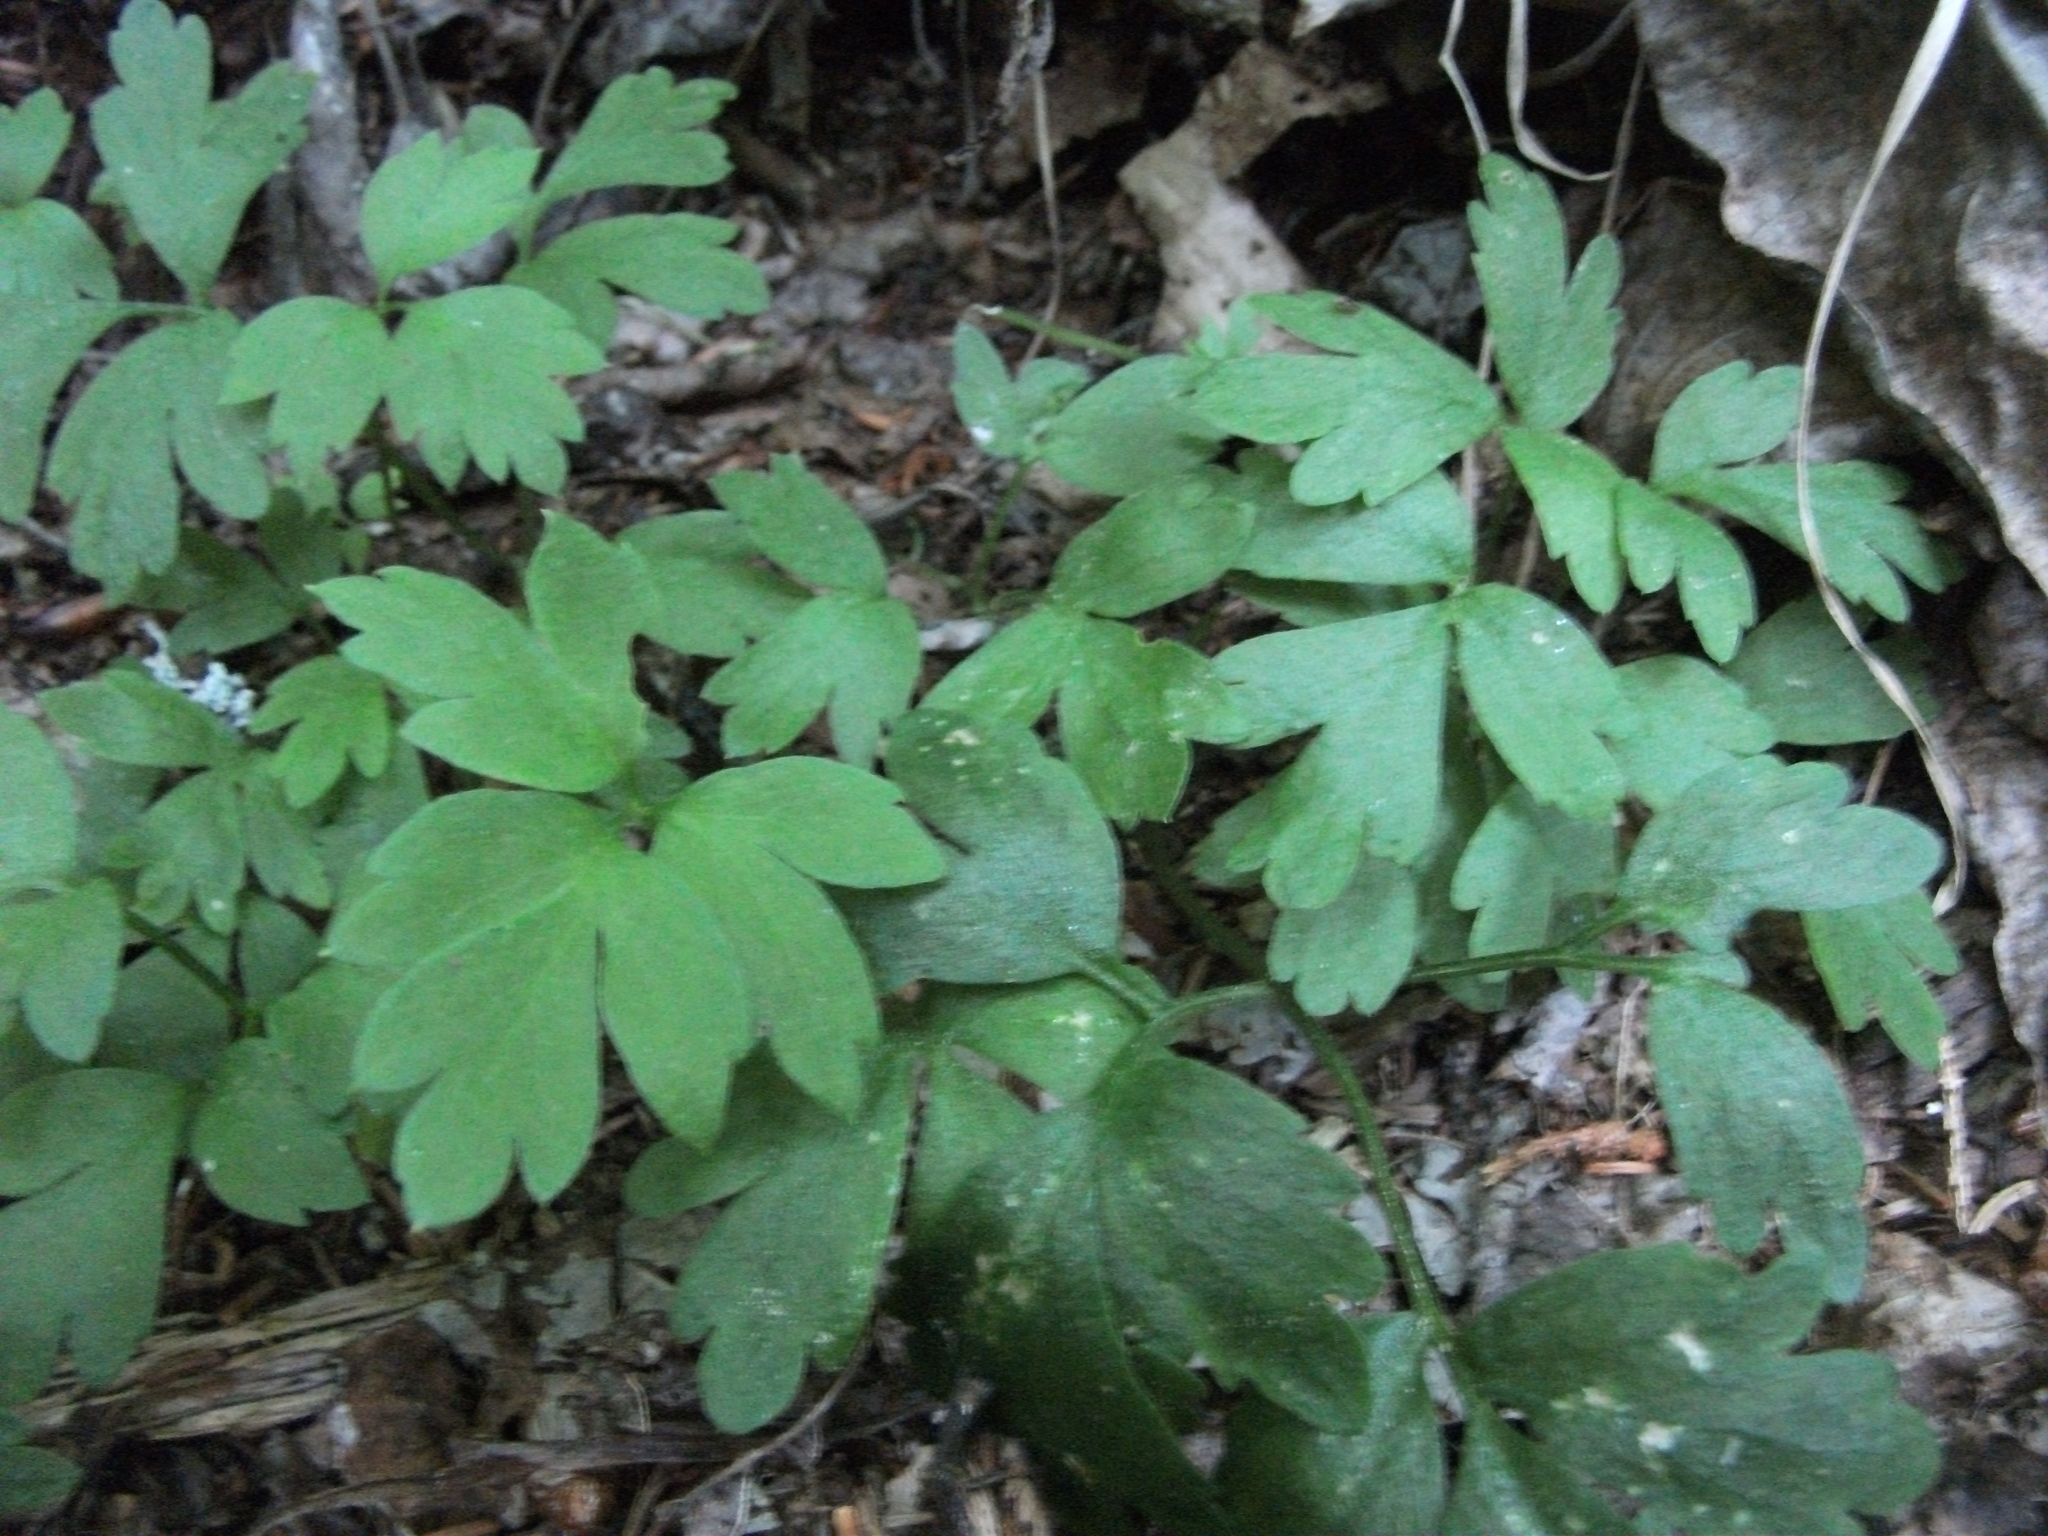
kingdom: Plantae
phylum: Tracheophyta
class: Magnoliopsida
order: Dipsacales
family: Viburnaceae
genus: Adoxa
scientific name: Adoxa moschatellina
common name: Moschatel
